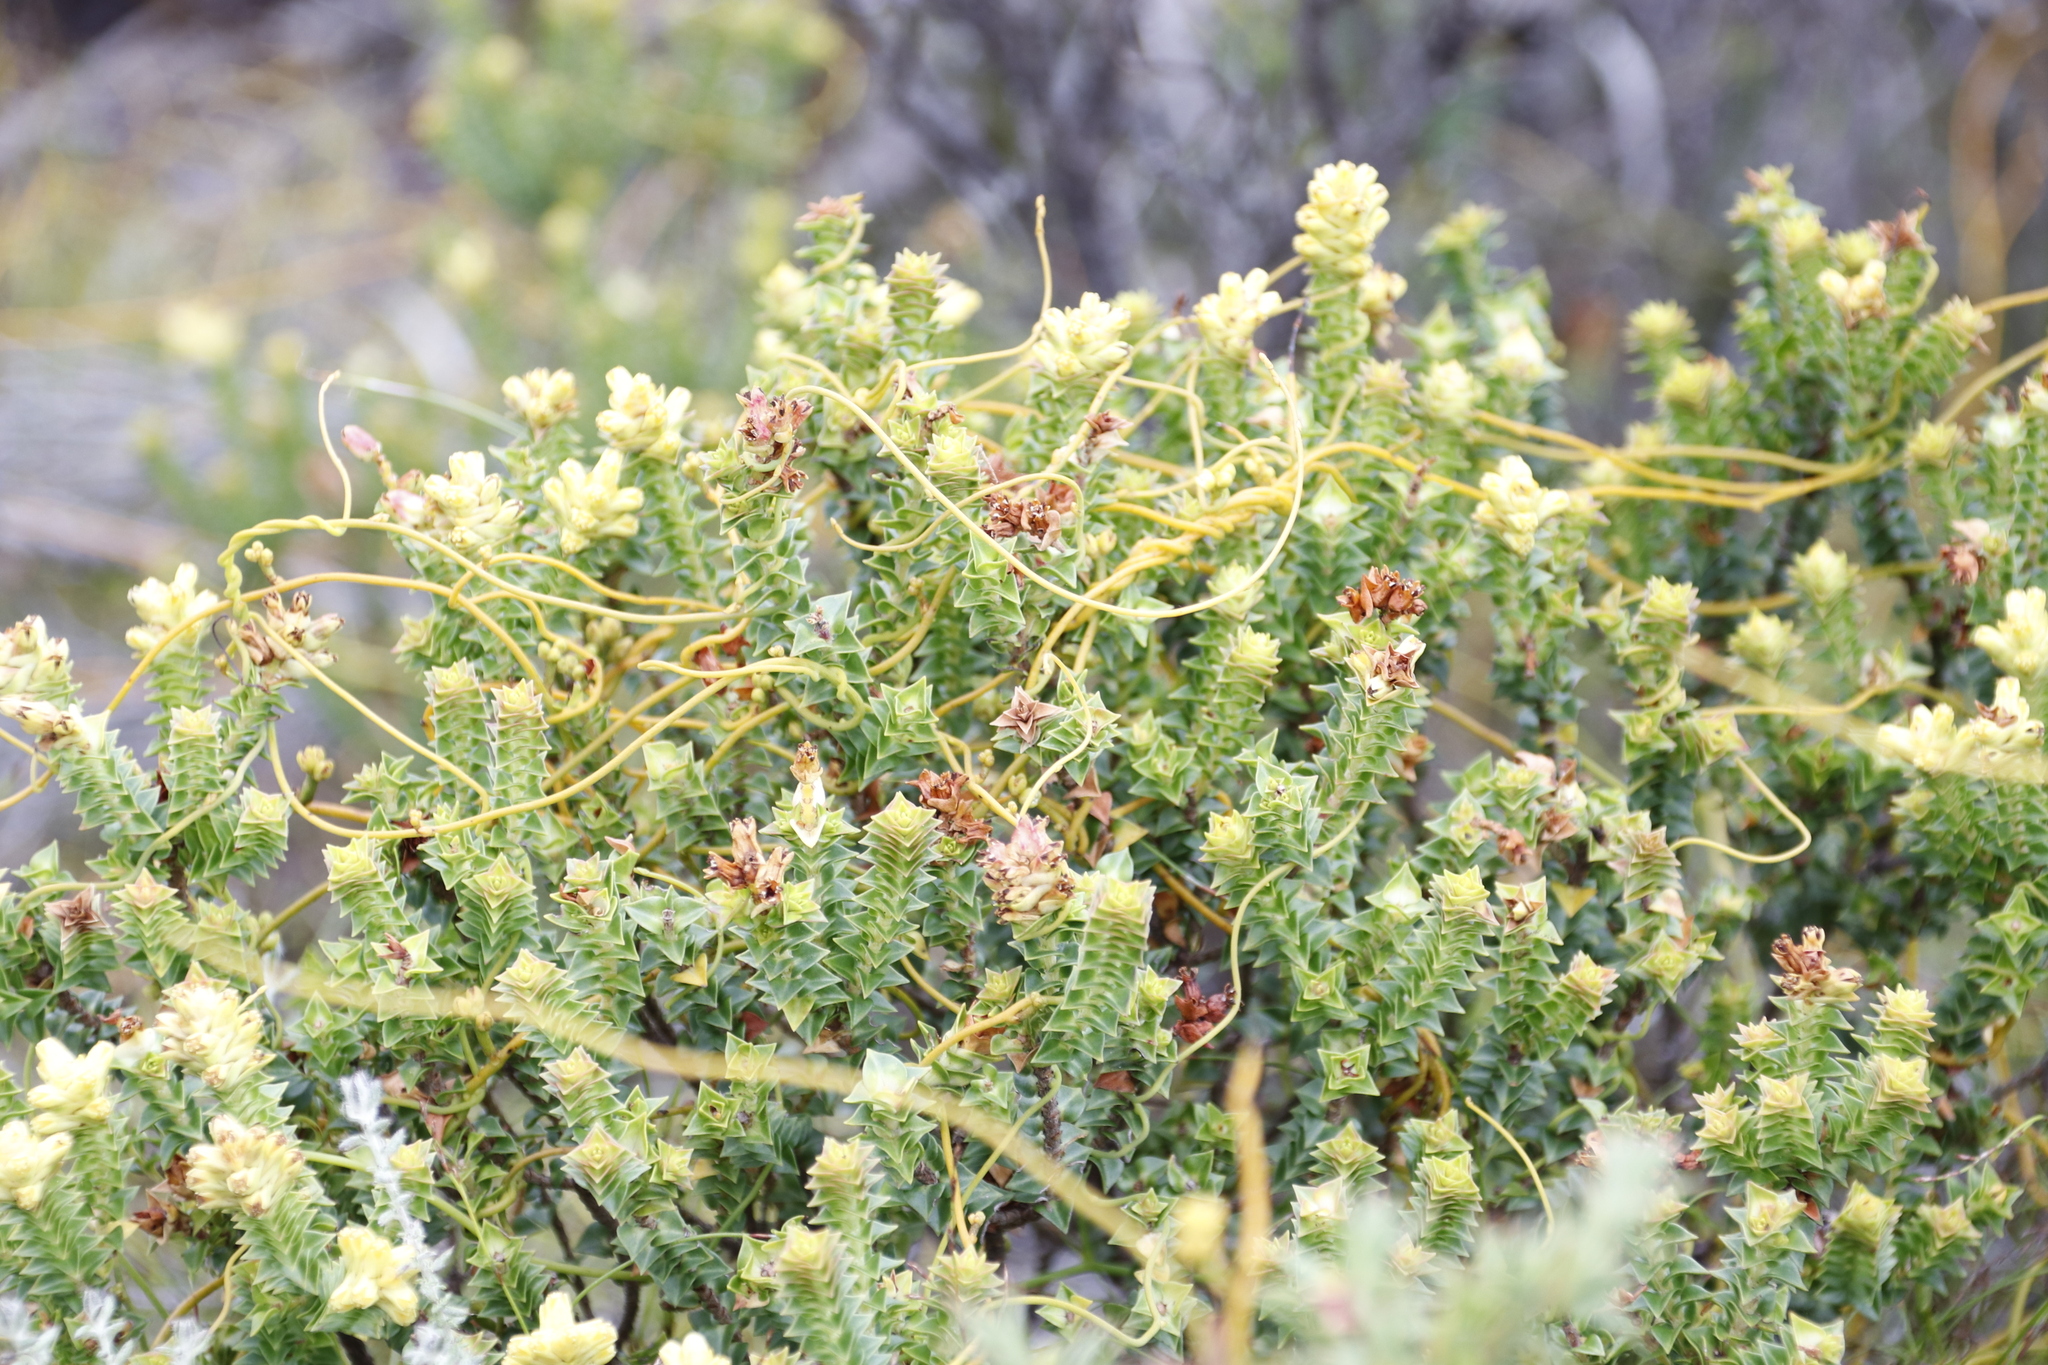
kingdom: Plantae
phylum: Tracheophyta
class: Magnoliopsida
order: Myrtales
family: Penaeaceae
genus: Penaea
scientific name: Penaea mucronata
